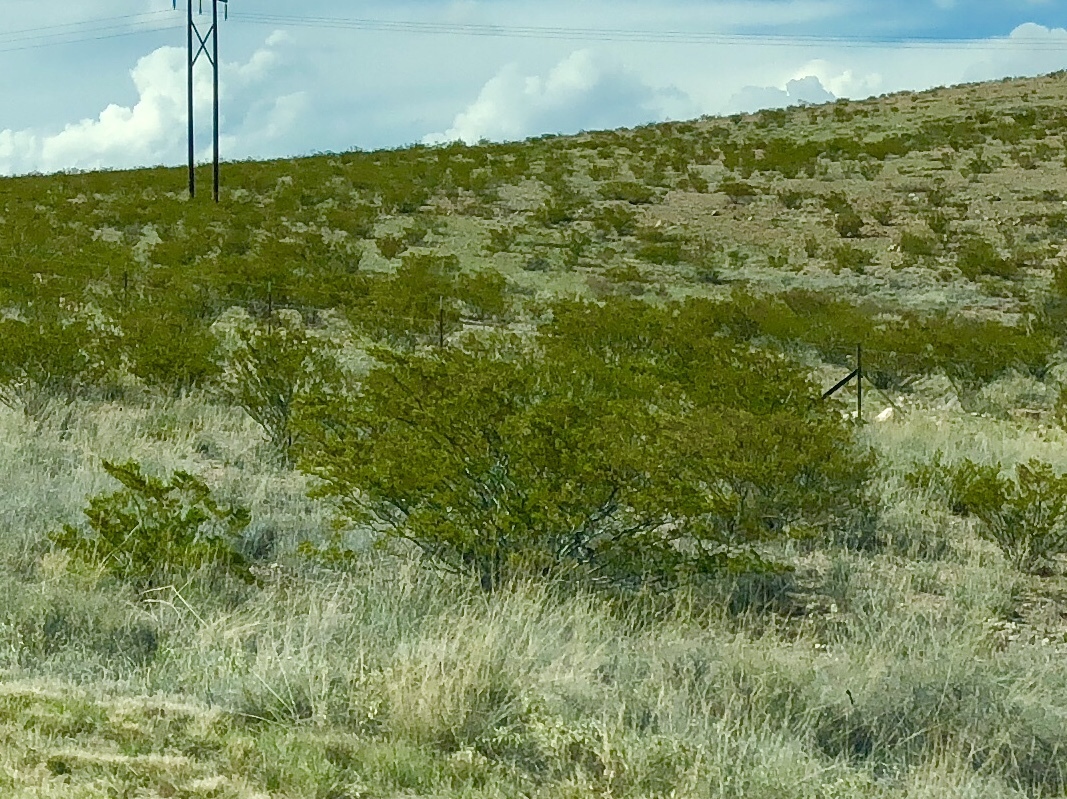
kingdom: Plantae
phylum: Tracheophyta
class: Magnoliopsida
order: Zygophyllales
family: Zygophyllaceae
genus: Larrea
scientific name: Larrea tridentata
